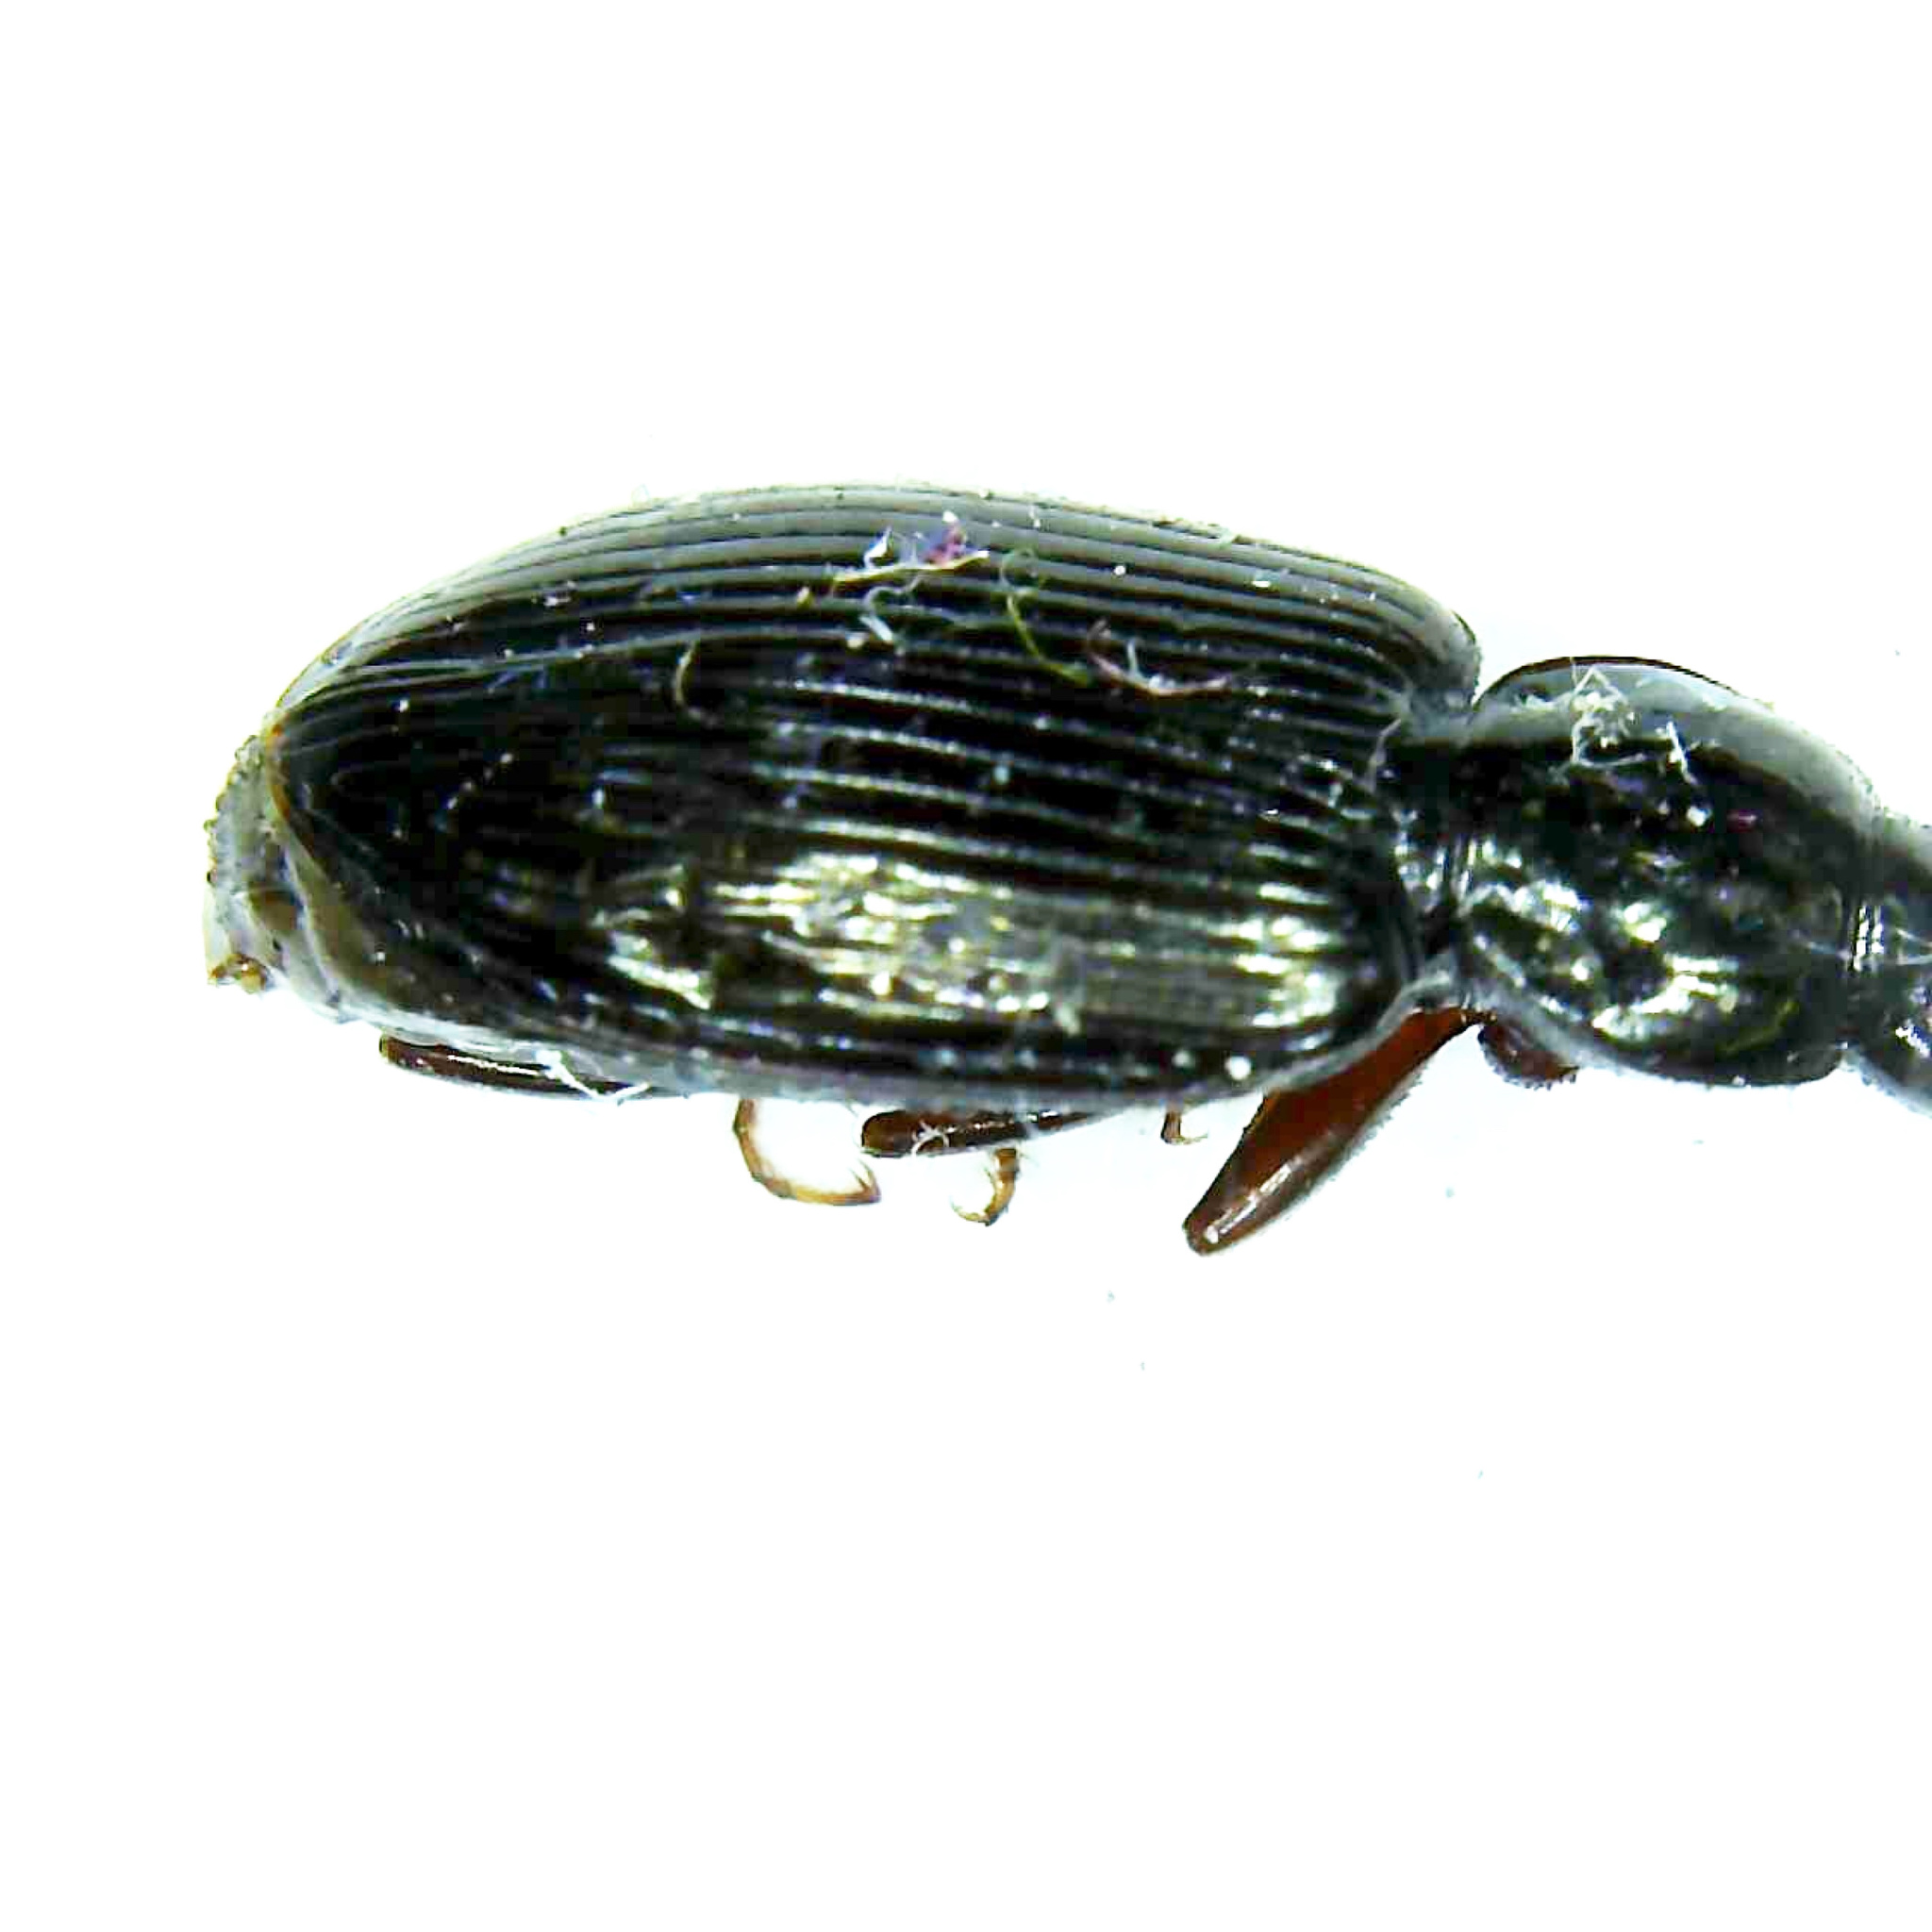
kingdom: Animalia
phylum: Arthropoda
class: Insecta
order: Coleoptera
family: Carabidae
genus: Agonum
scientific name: Agonum punctiforme
